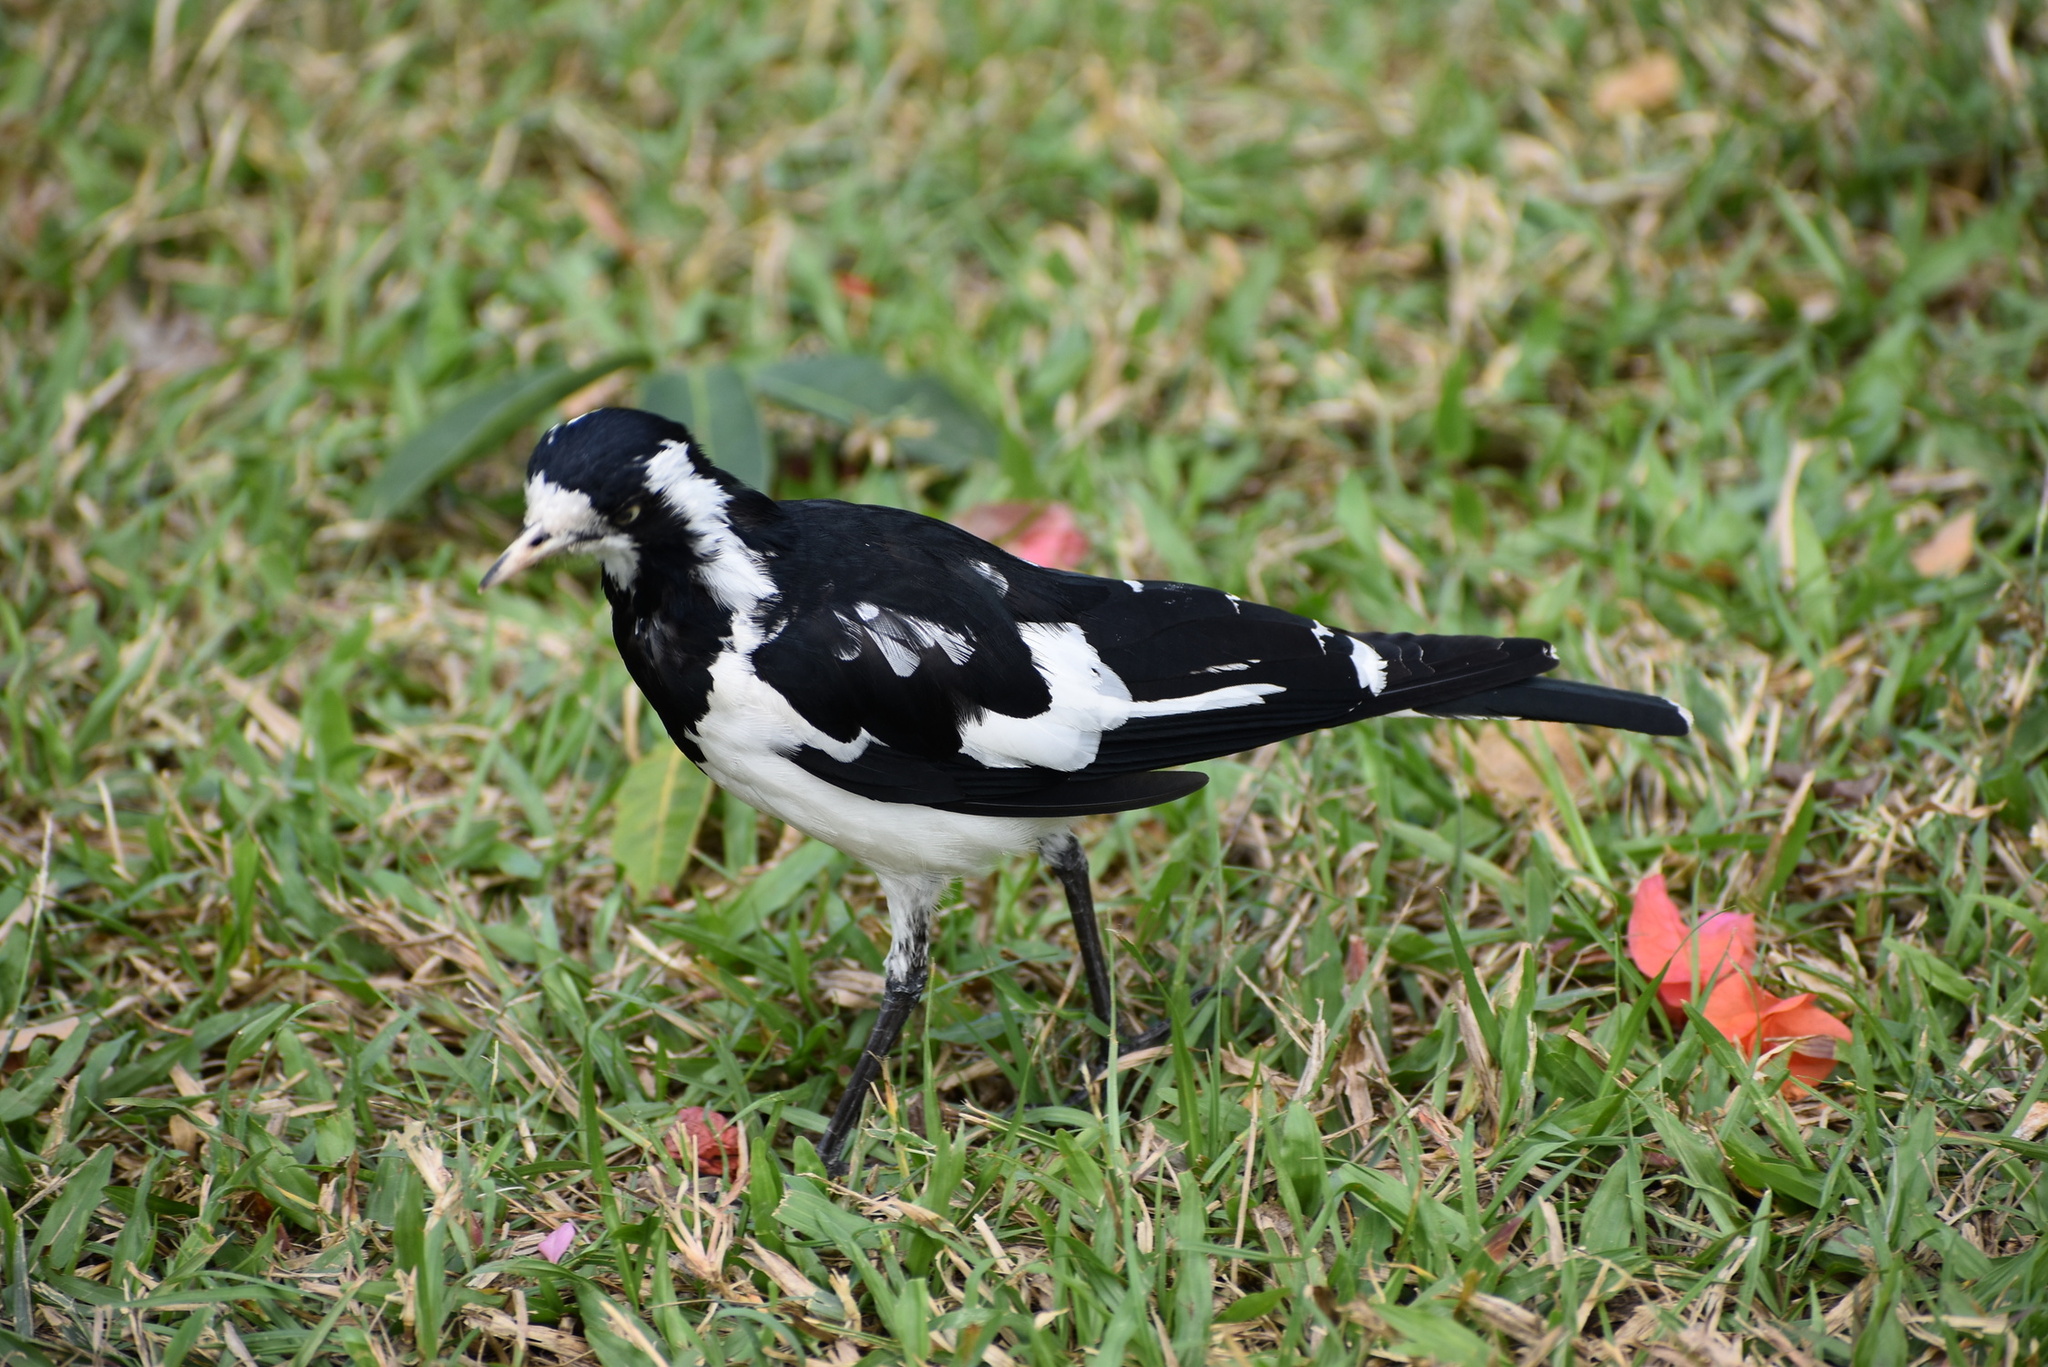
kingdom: Animalia
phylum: Chordata
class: Aves
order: Passeriformes
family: Monarchidae
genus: Grallina
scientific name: Grallina cyanoleuca
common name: Magpie-lark
